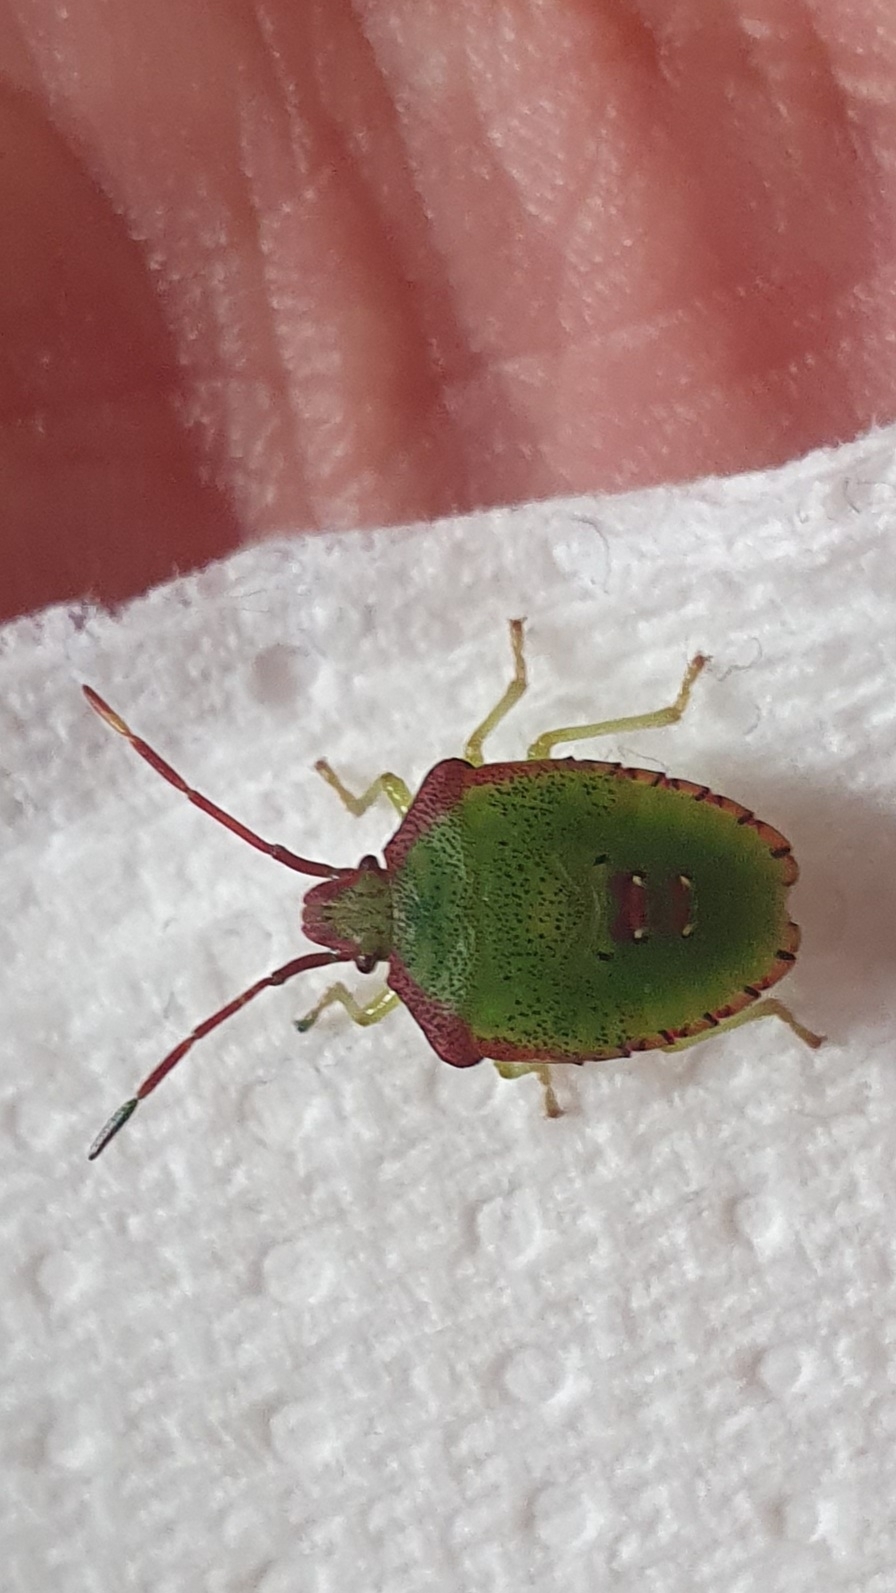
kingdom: Animalia
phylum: Arthropoda
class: Insecta
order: Hemiptera
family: Acanthosomatidae
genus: Acanthosoma
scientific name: Acanthosoma haemorrhoidale
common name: Hawthorn shieldbug
